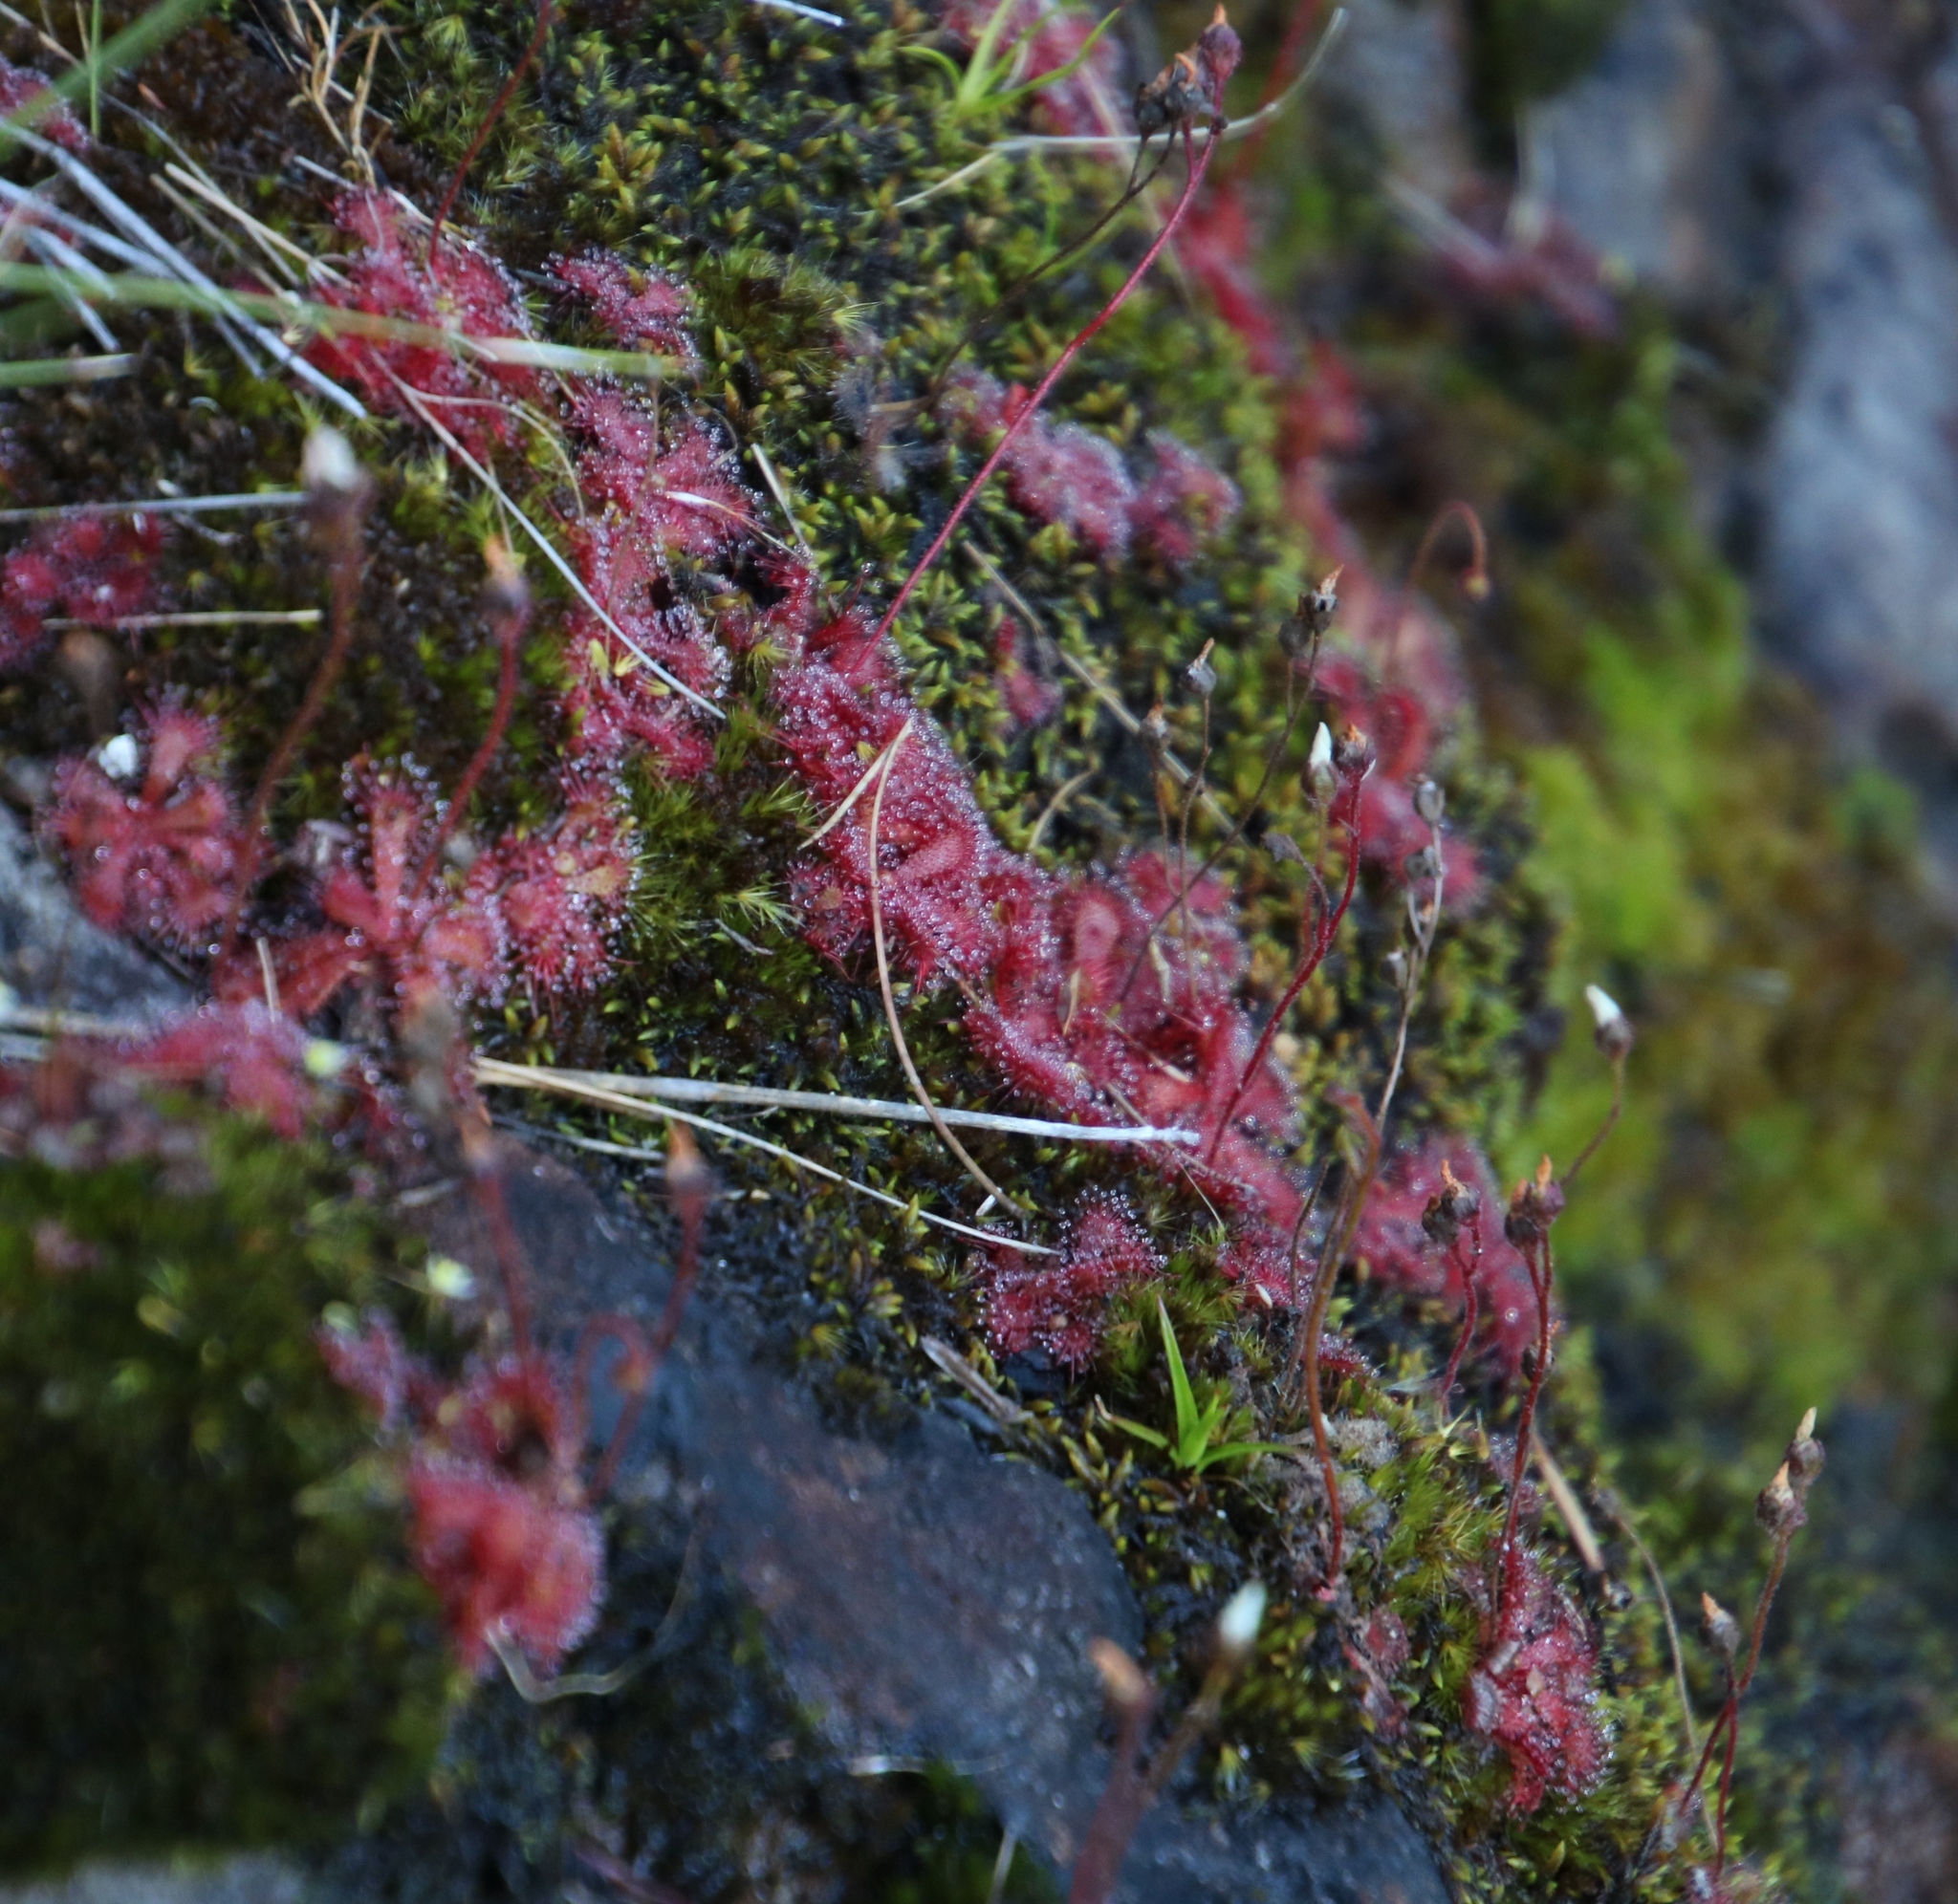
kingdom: Plantae
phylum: Tracheophyta
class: Magnoliopsida
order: Caryophyllales
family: Droseraceae
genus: Drosera
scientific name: Drosera trinervia
